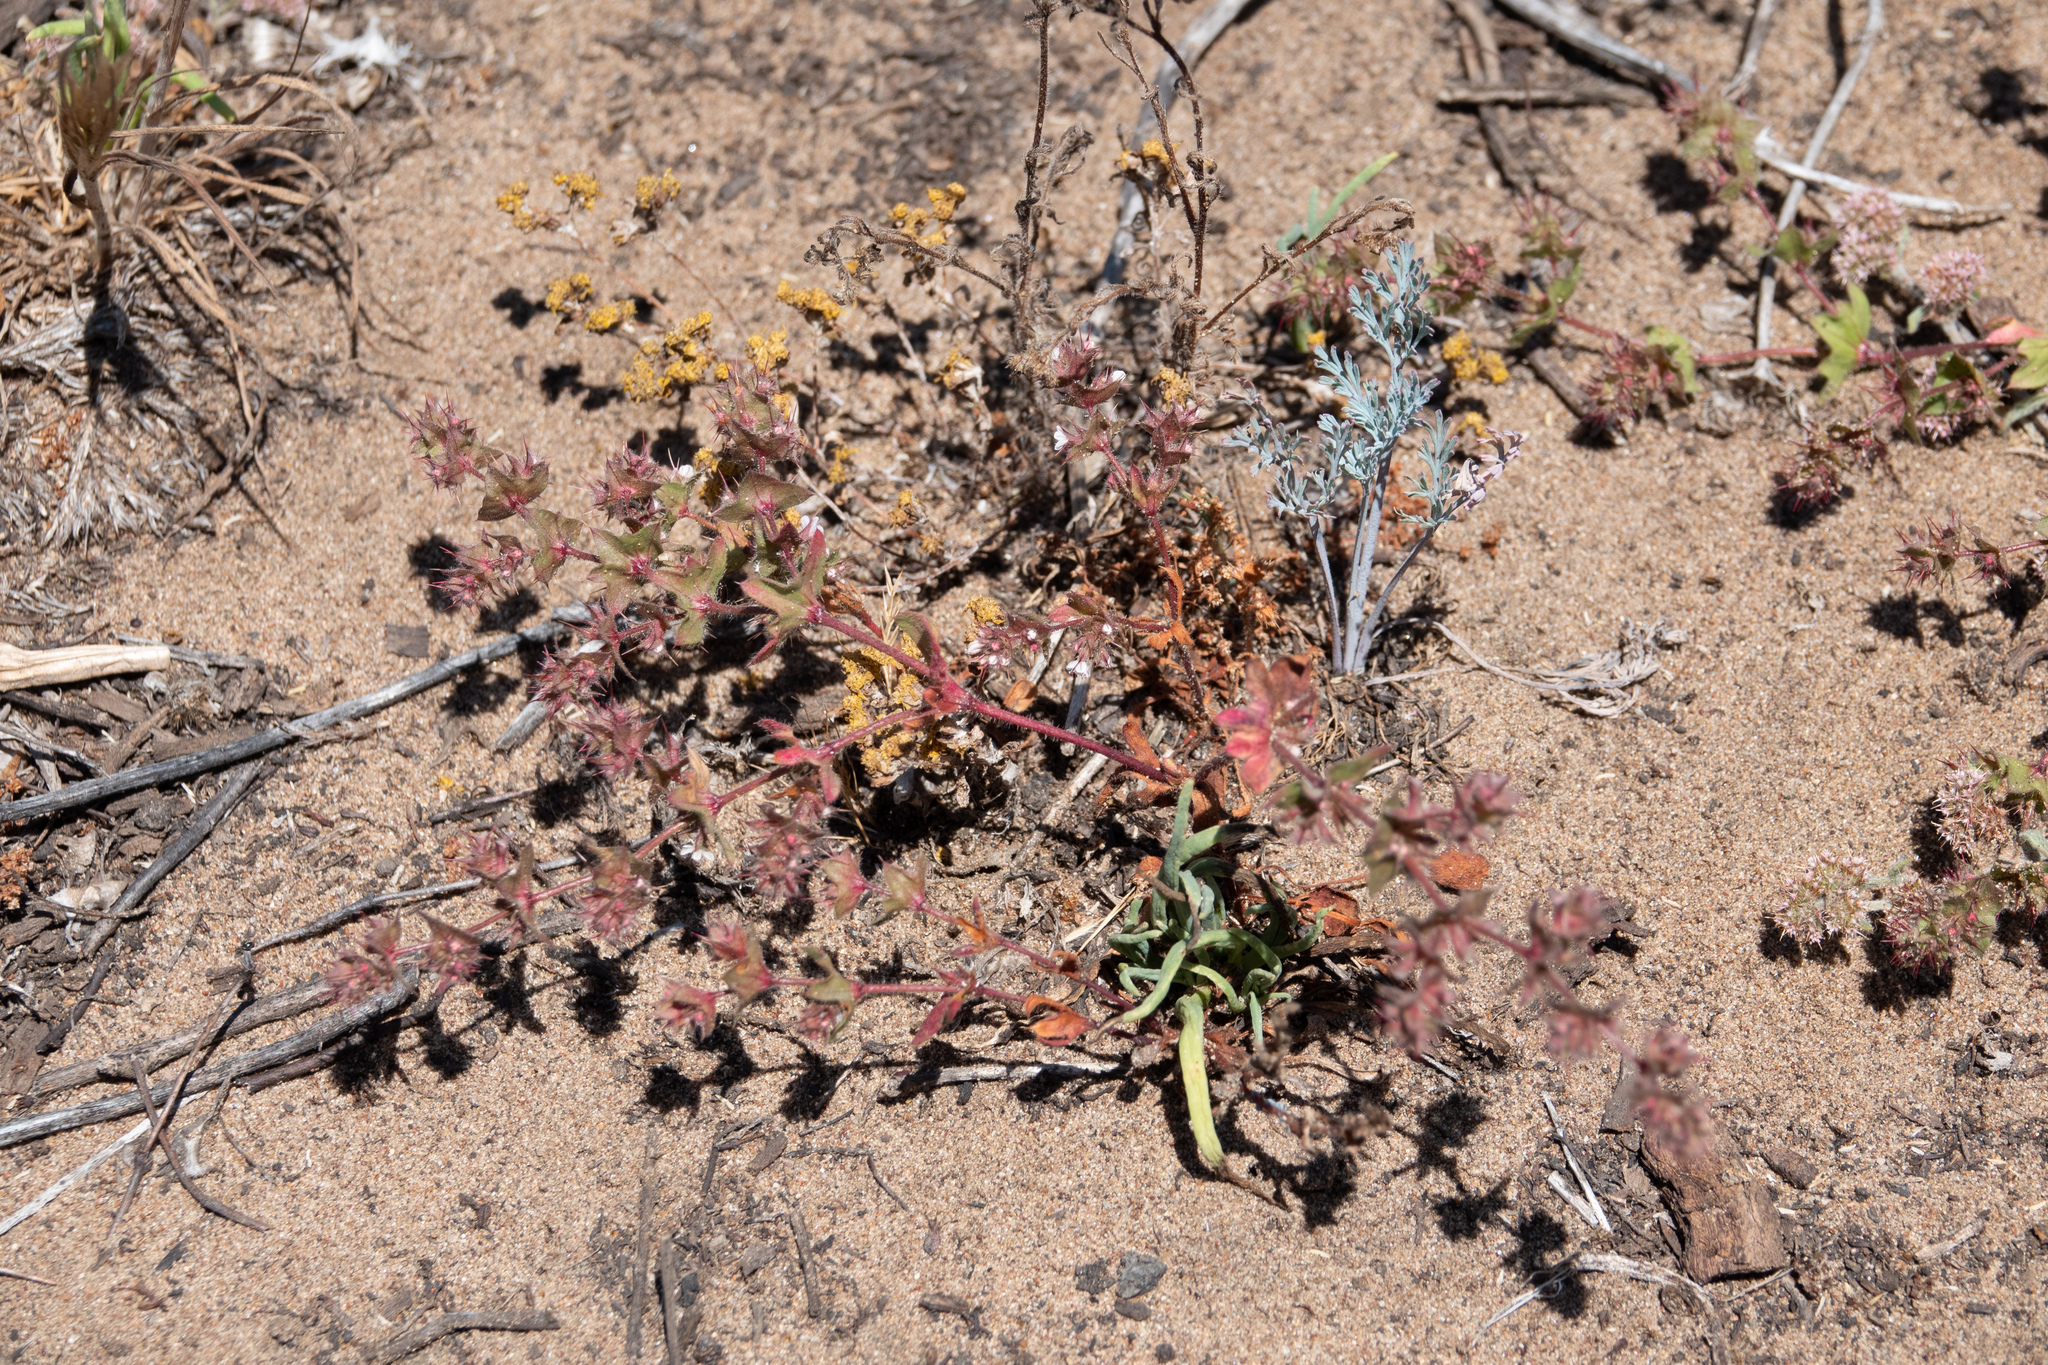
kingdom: Plantae
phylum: Tracheophyta
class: Magnoliopsida
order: Caryophyllales
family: Polygonaceae
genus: Mucronea
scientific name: Mucronea californica
